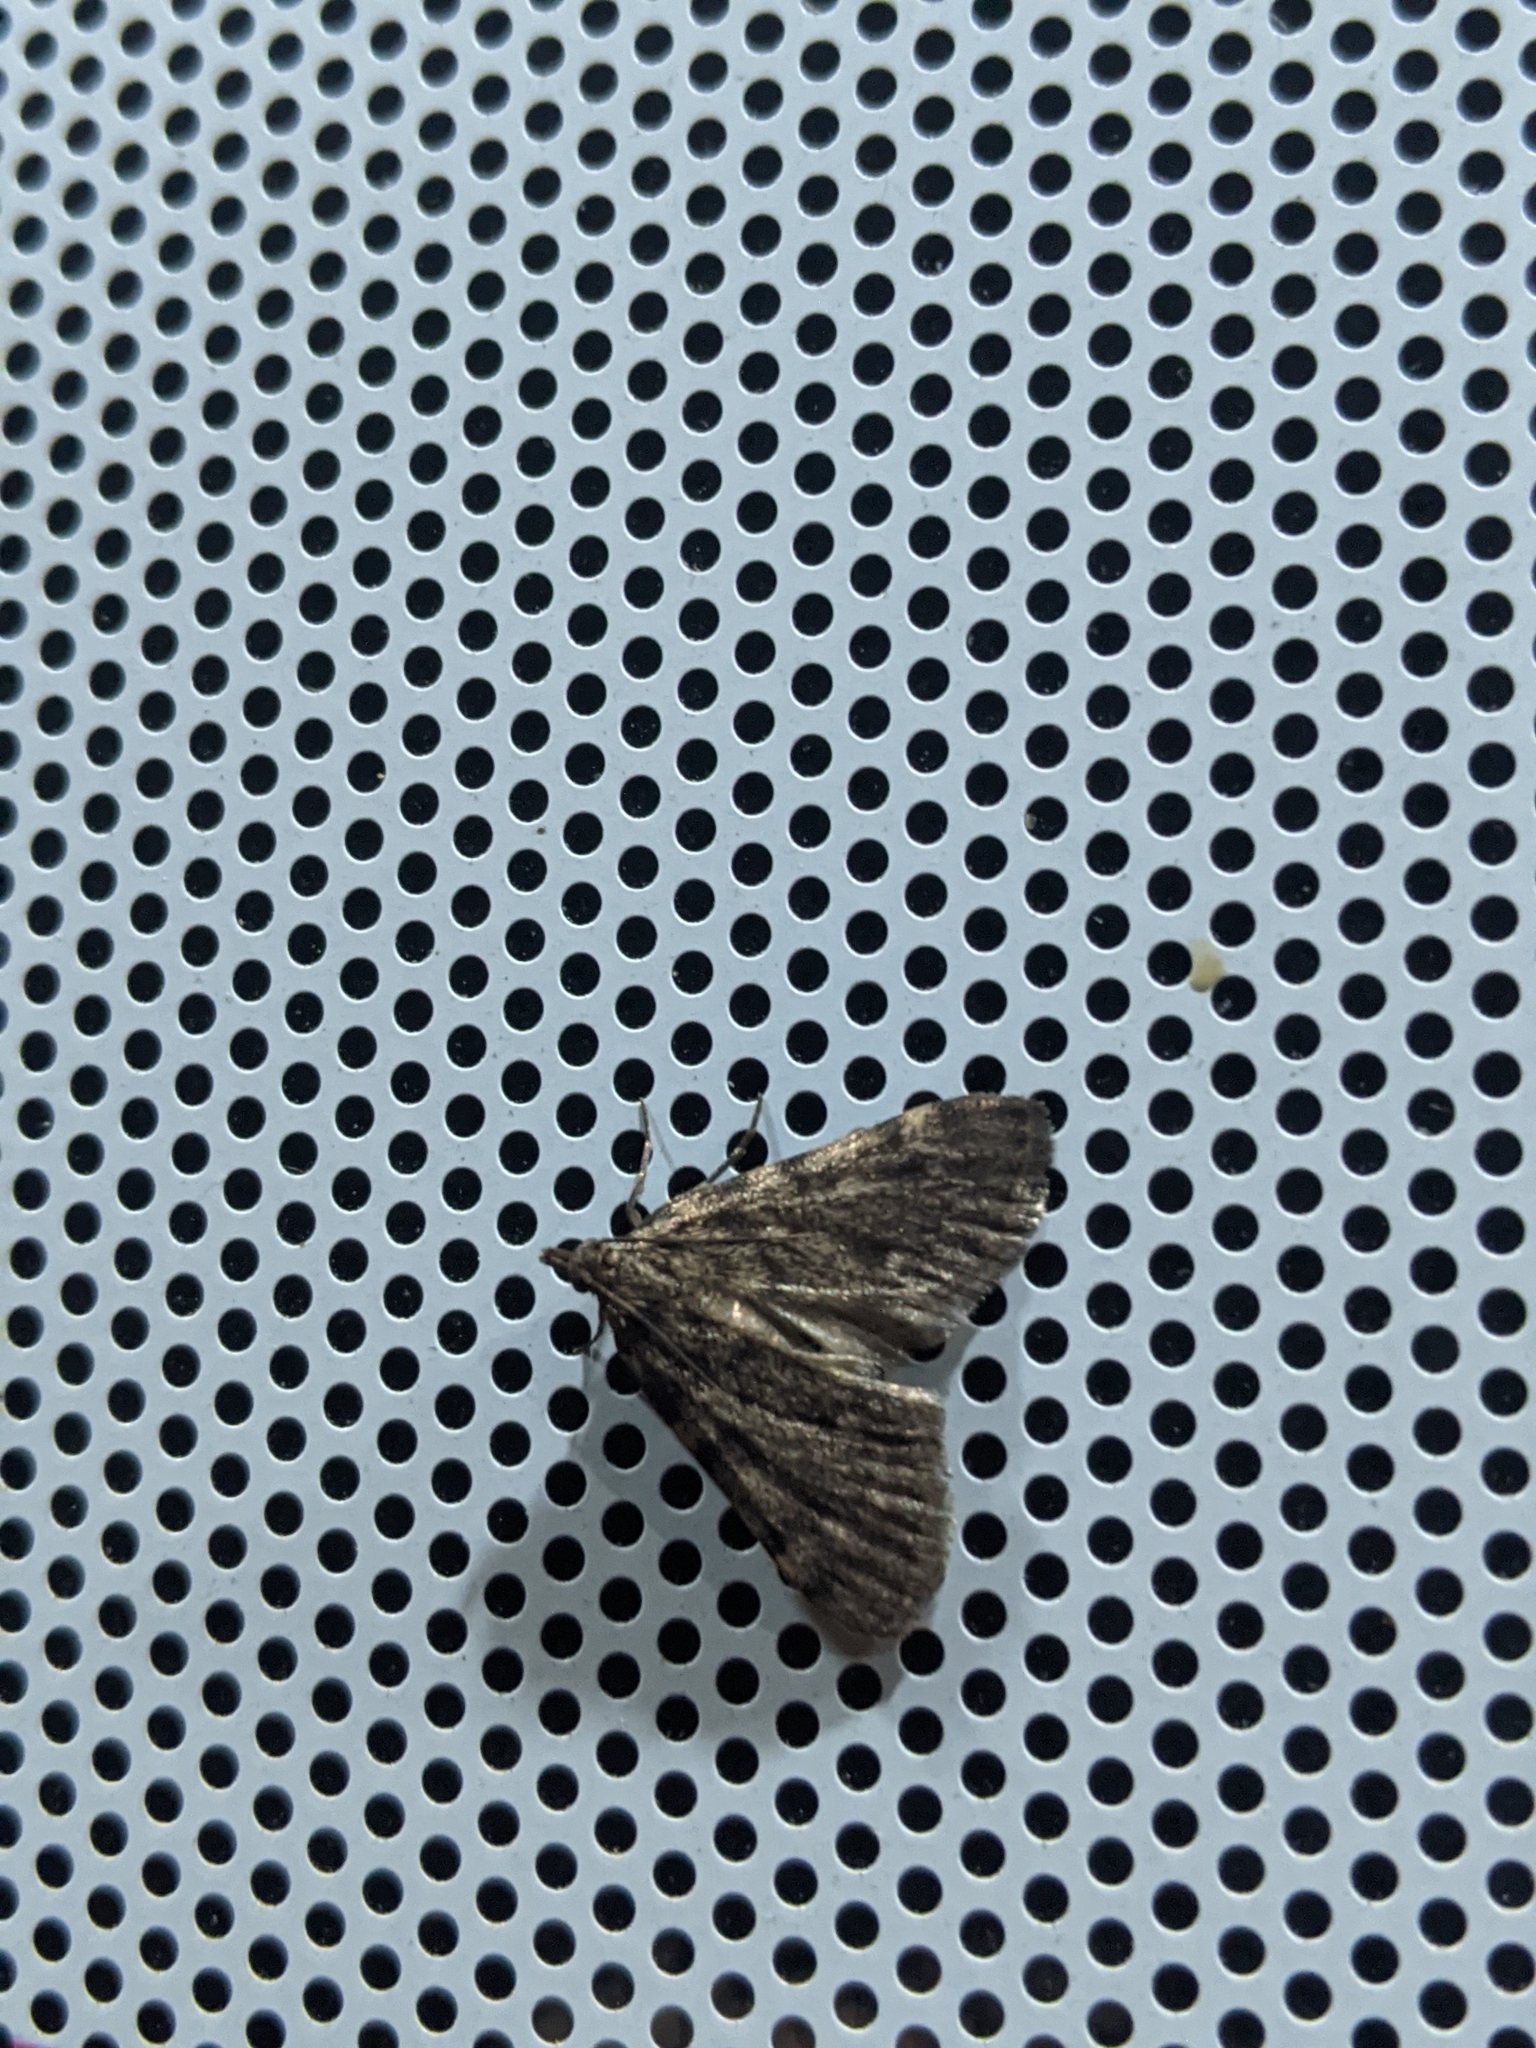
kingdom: Animalia
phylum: Arthropoda
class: Insecta
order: Lepidoptera
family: Pyralidae
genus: Aglossa
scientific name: Aglossa pinguinalis
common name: Large tabby
